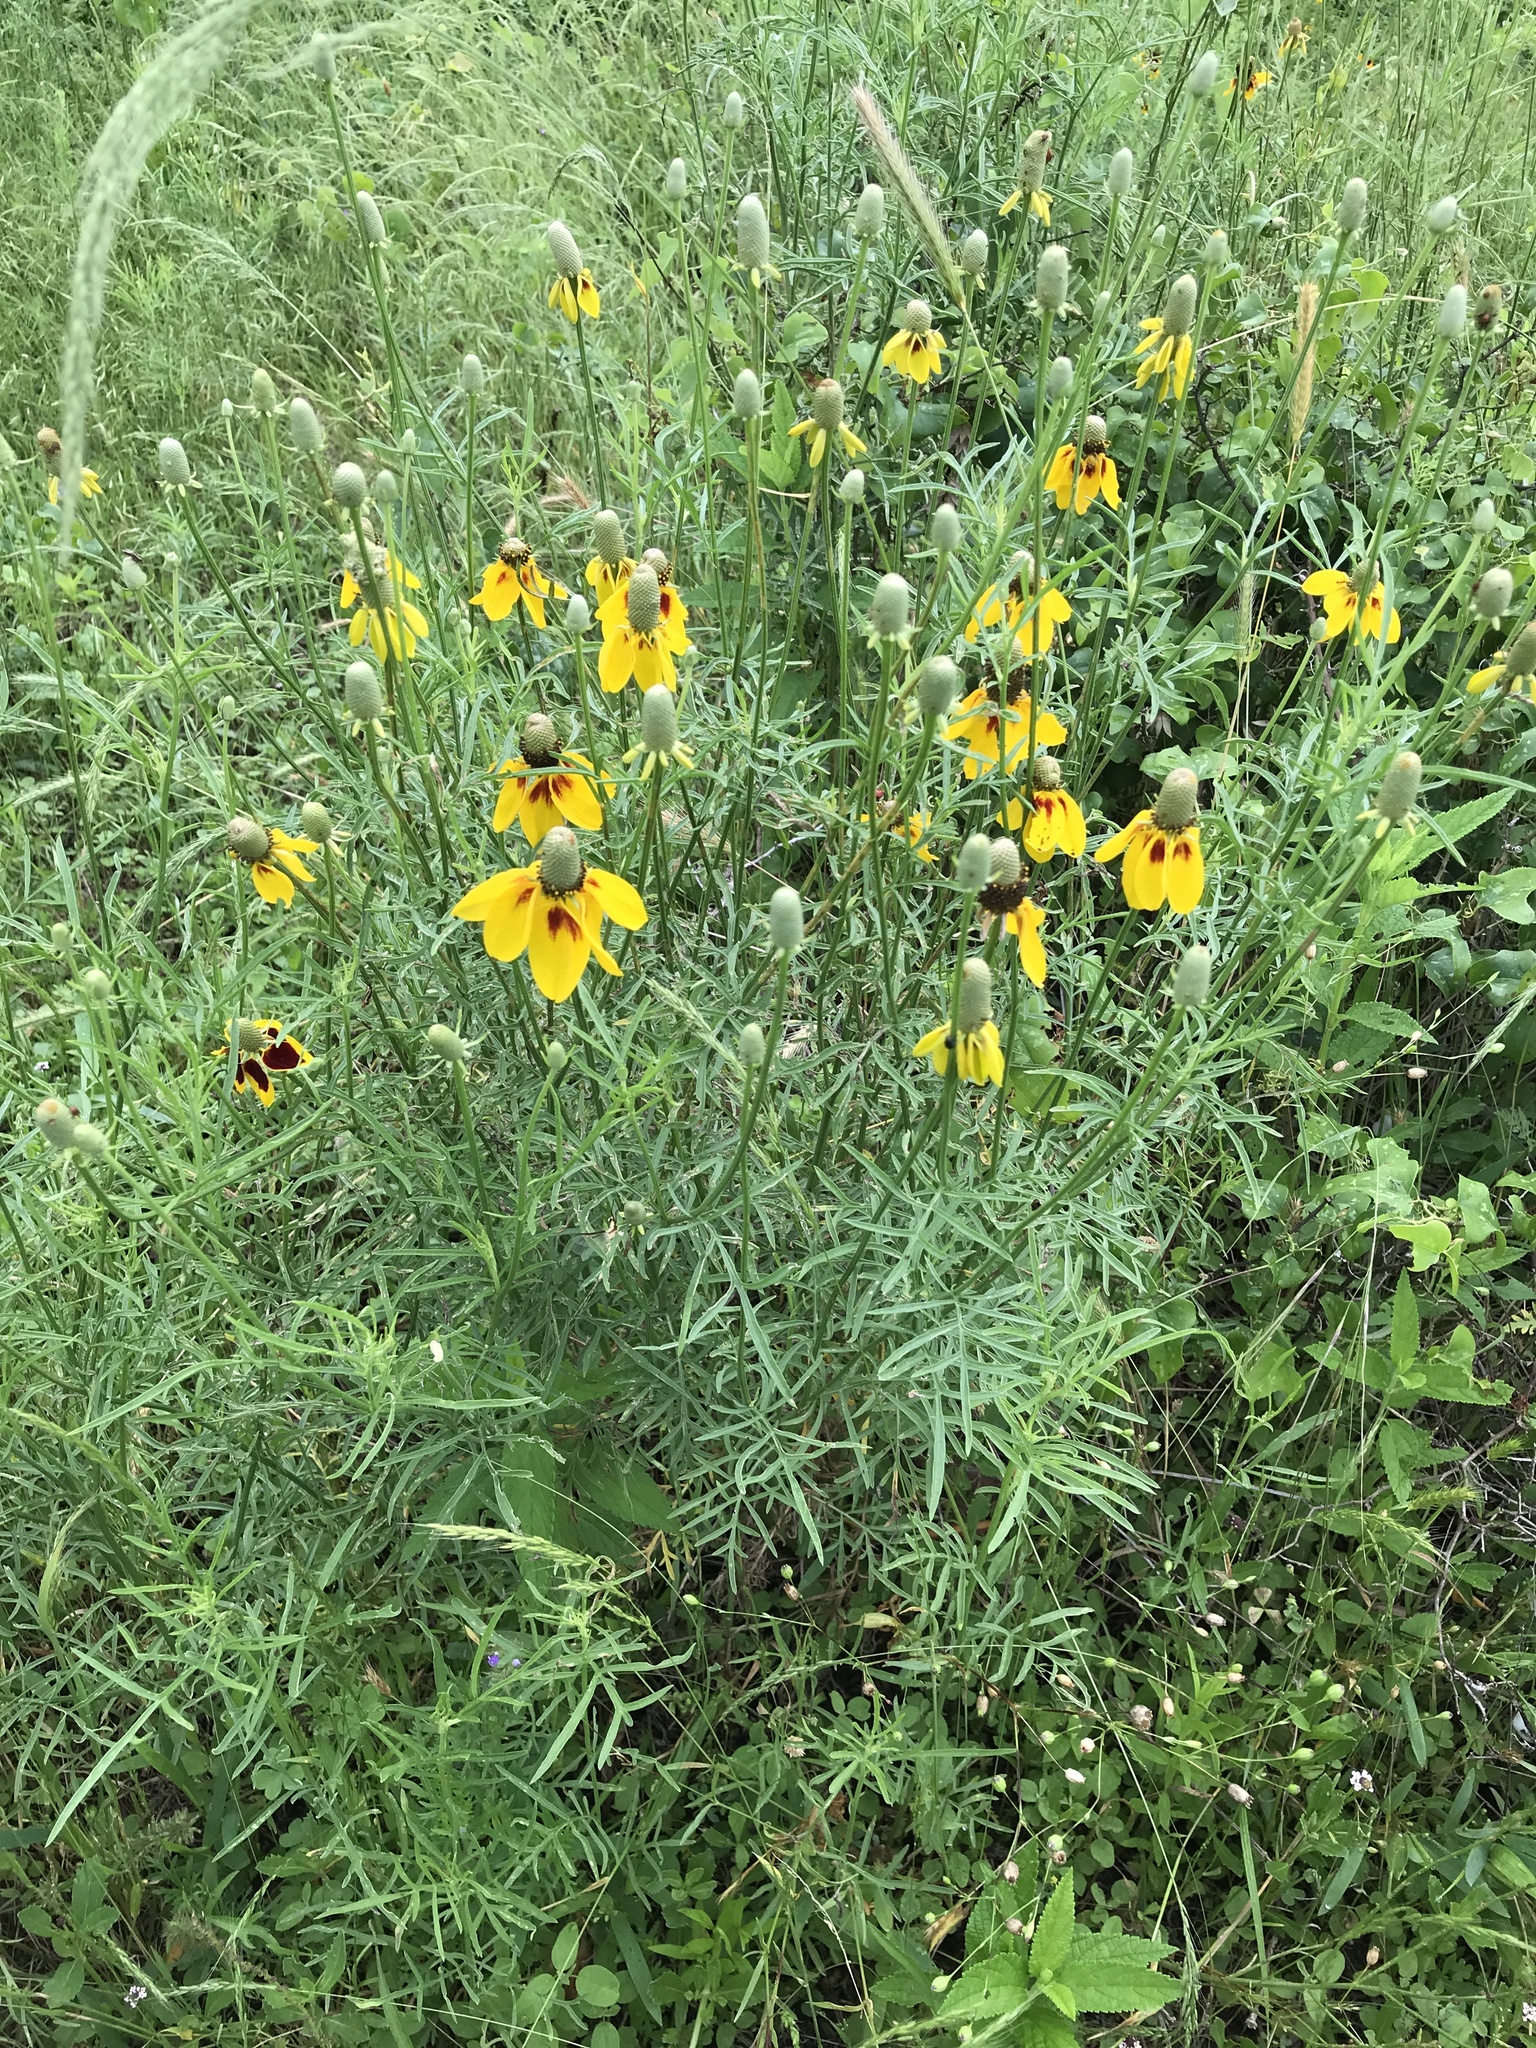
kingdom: Plantae
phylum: Tracheophyta
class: Magnoliopsida
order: Asterales
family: Asteraceae
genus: Ratibida
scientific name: Ratibida columnifera
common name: Prairie coneflower
